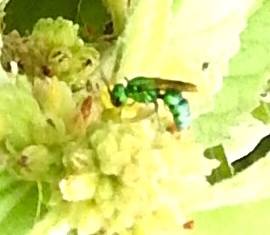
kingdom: Animalia
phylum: Arthropoda
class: Insecta
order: Hymenoptera
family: Halictidae
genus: Temnosoma
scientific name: Temnosoma
